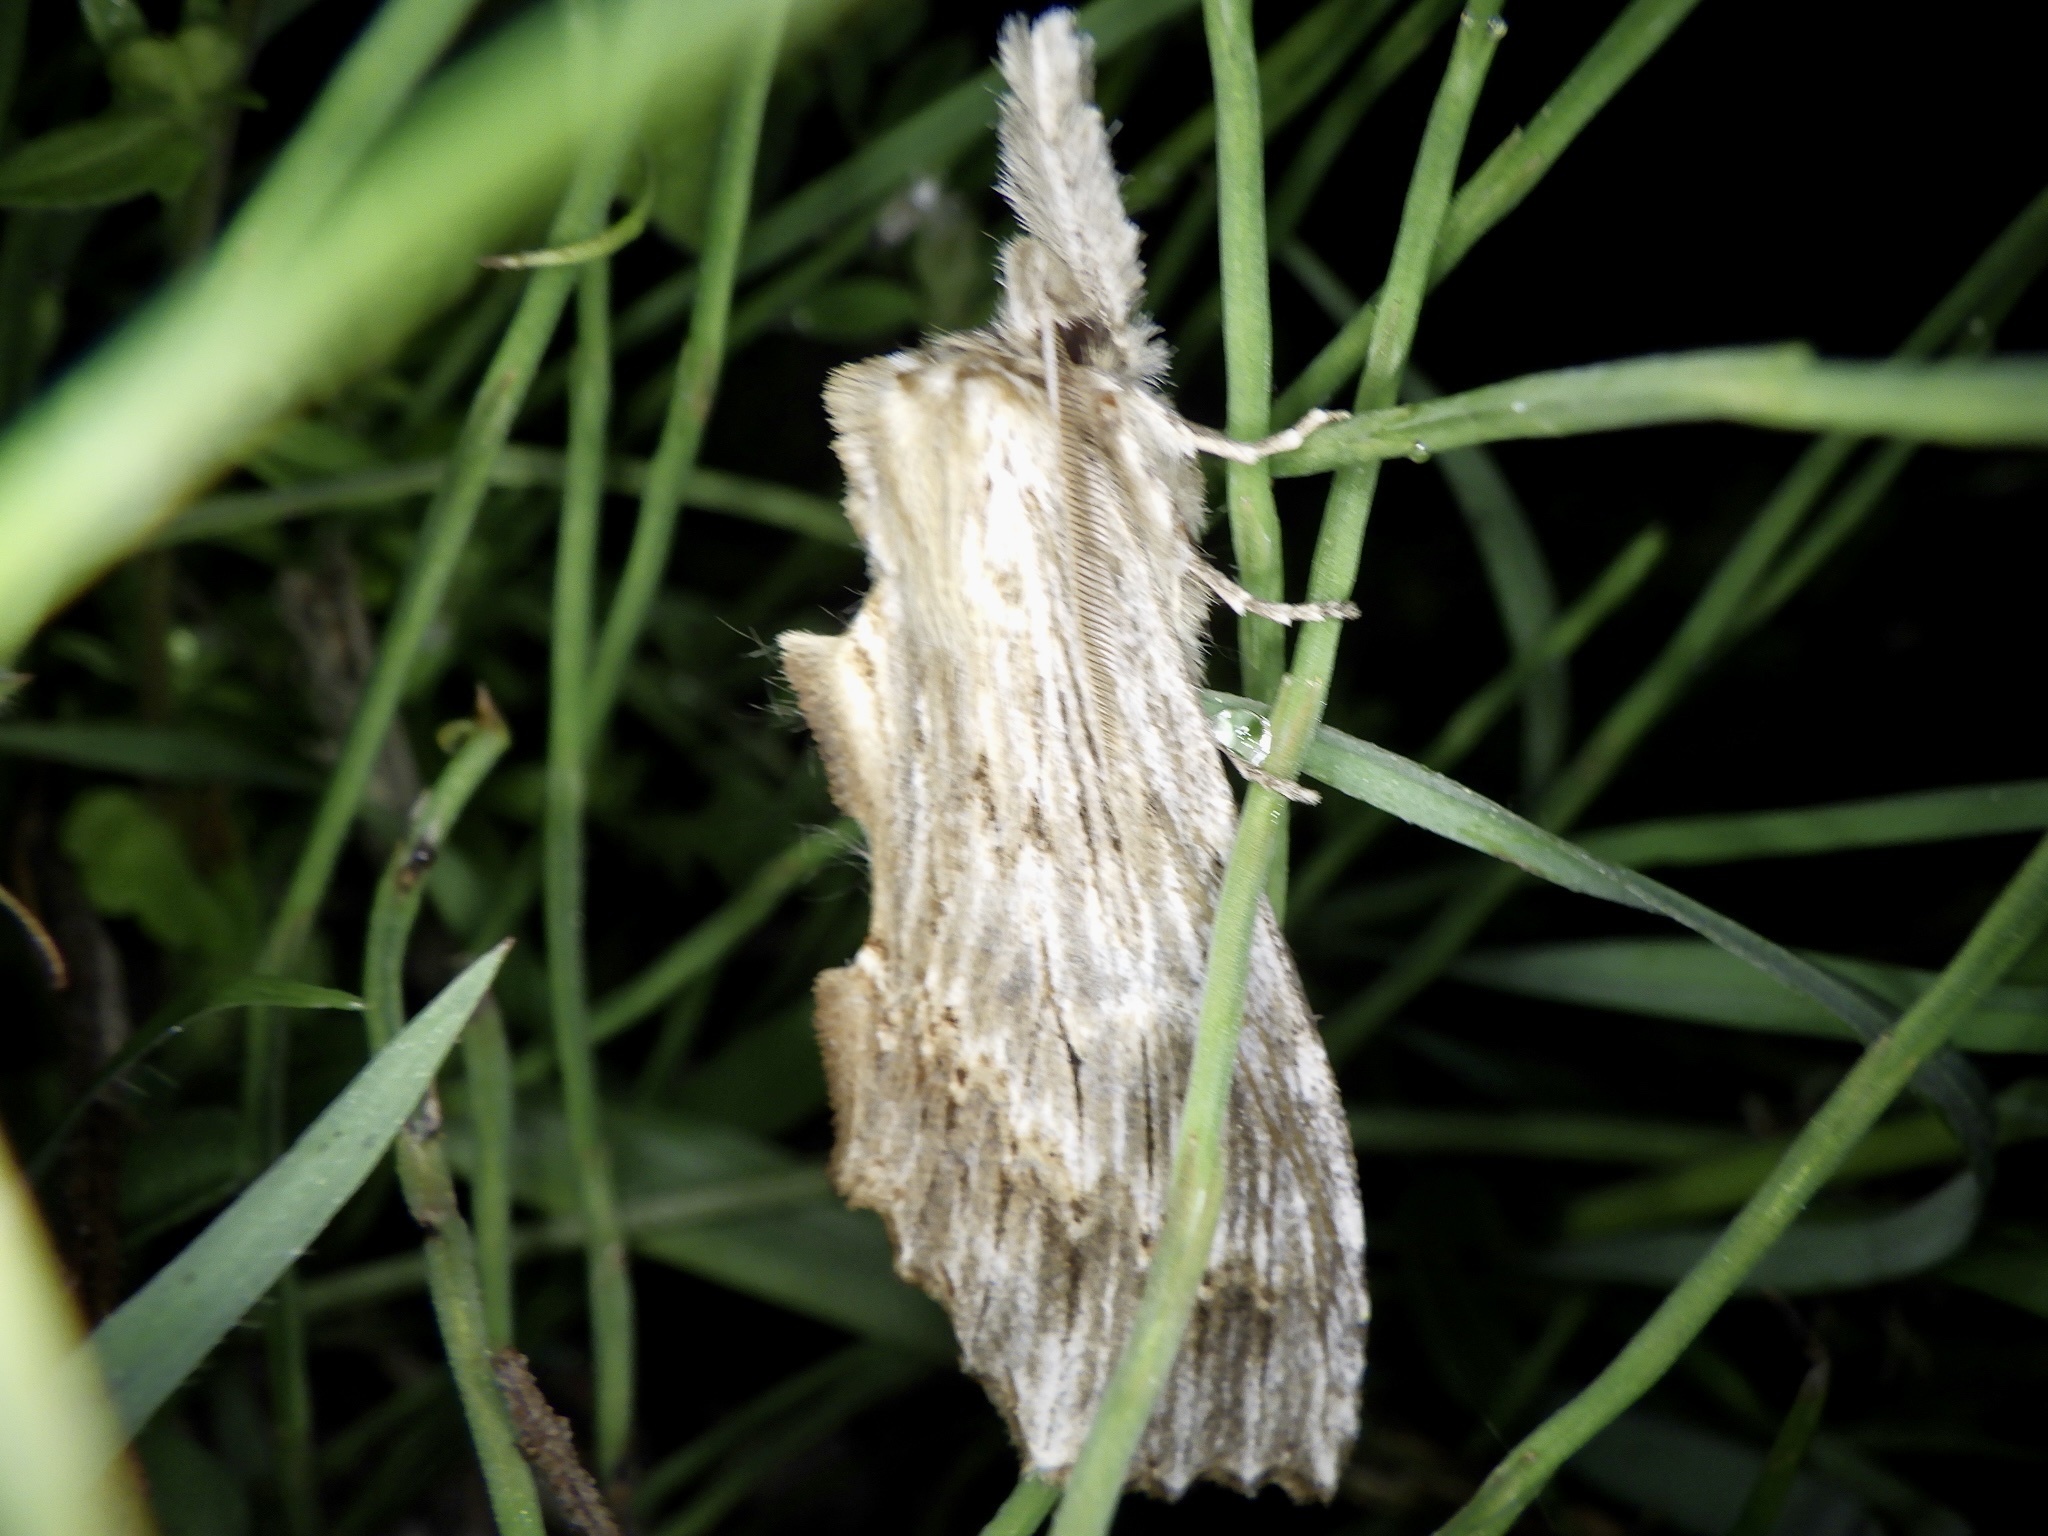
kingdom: Animalia
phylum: Arthropoda
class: Insecta
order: Lepidoptera
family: Notodontidae
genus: Pterostoma
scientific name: Pterostoma gigantina
